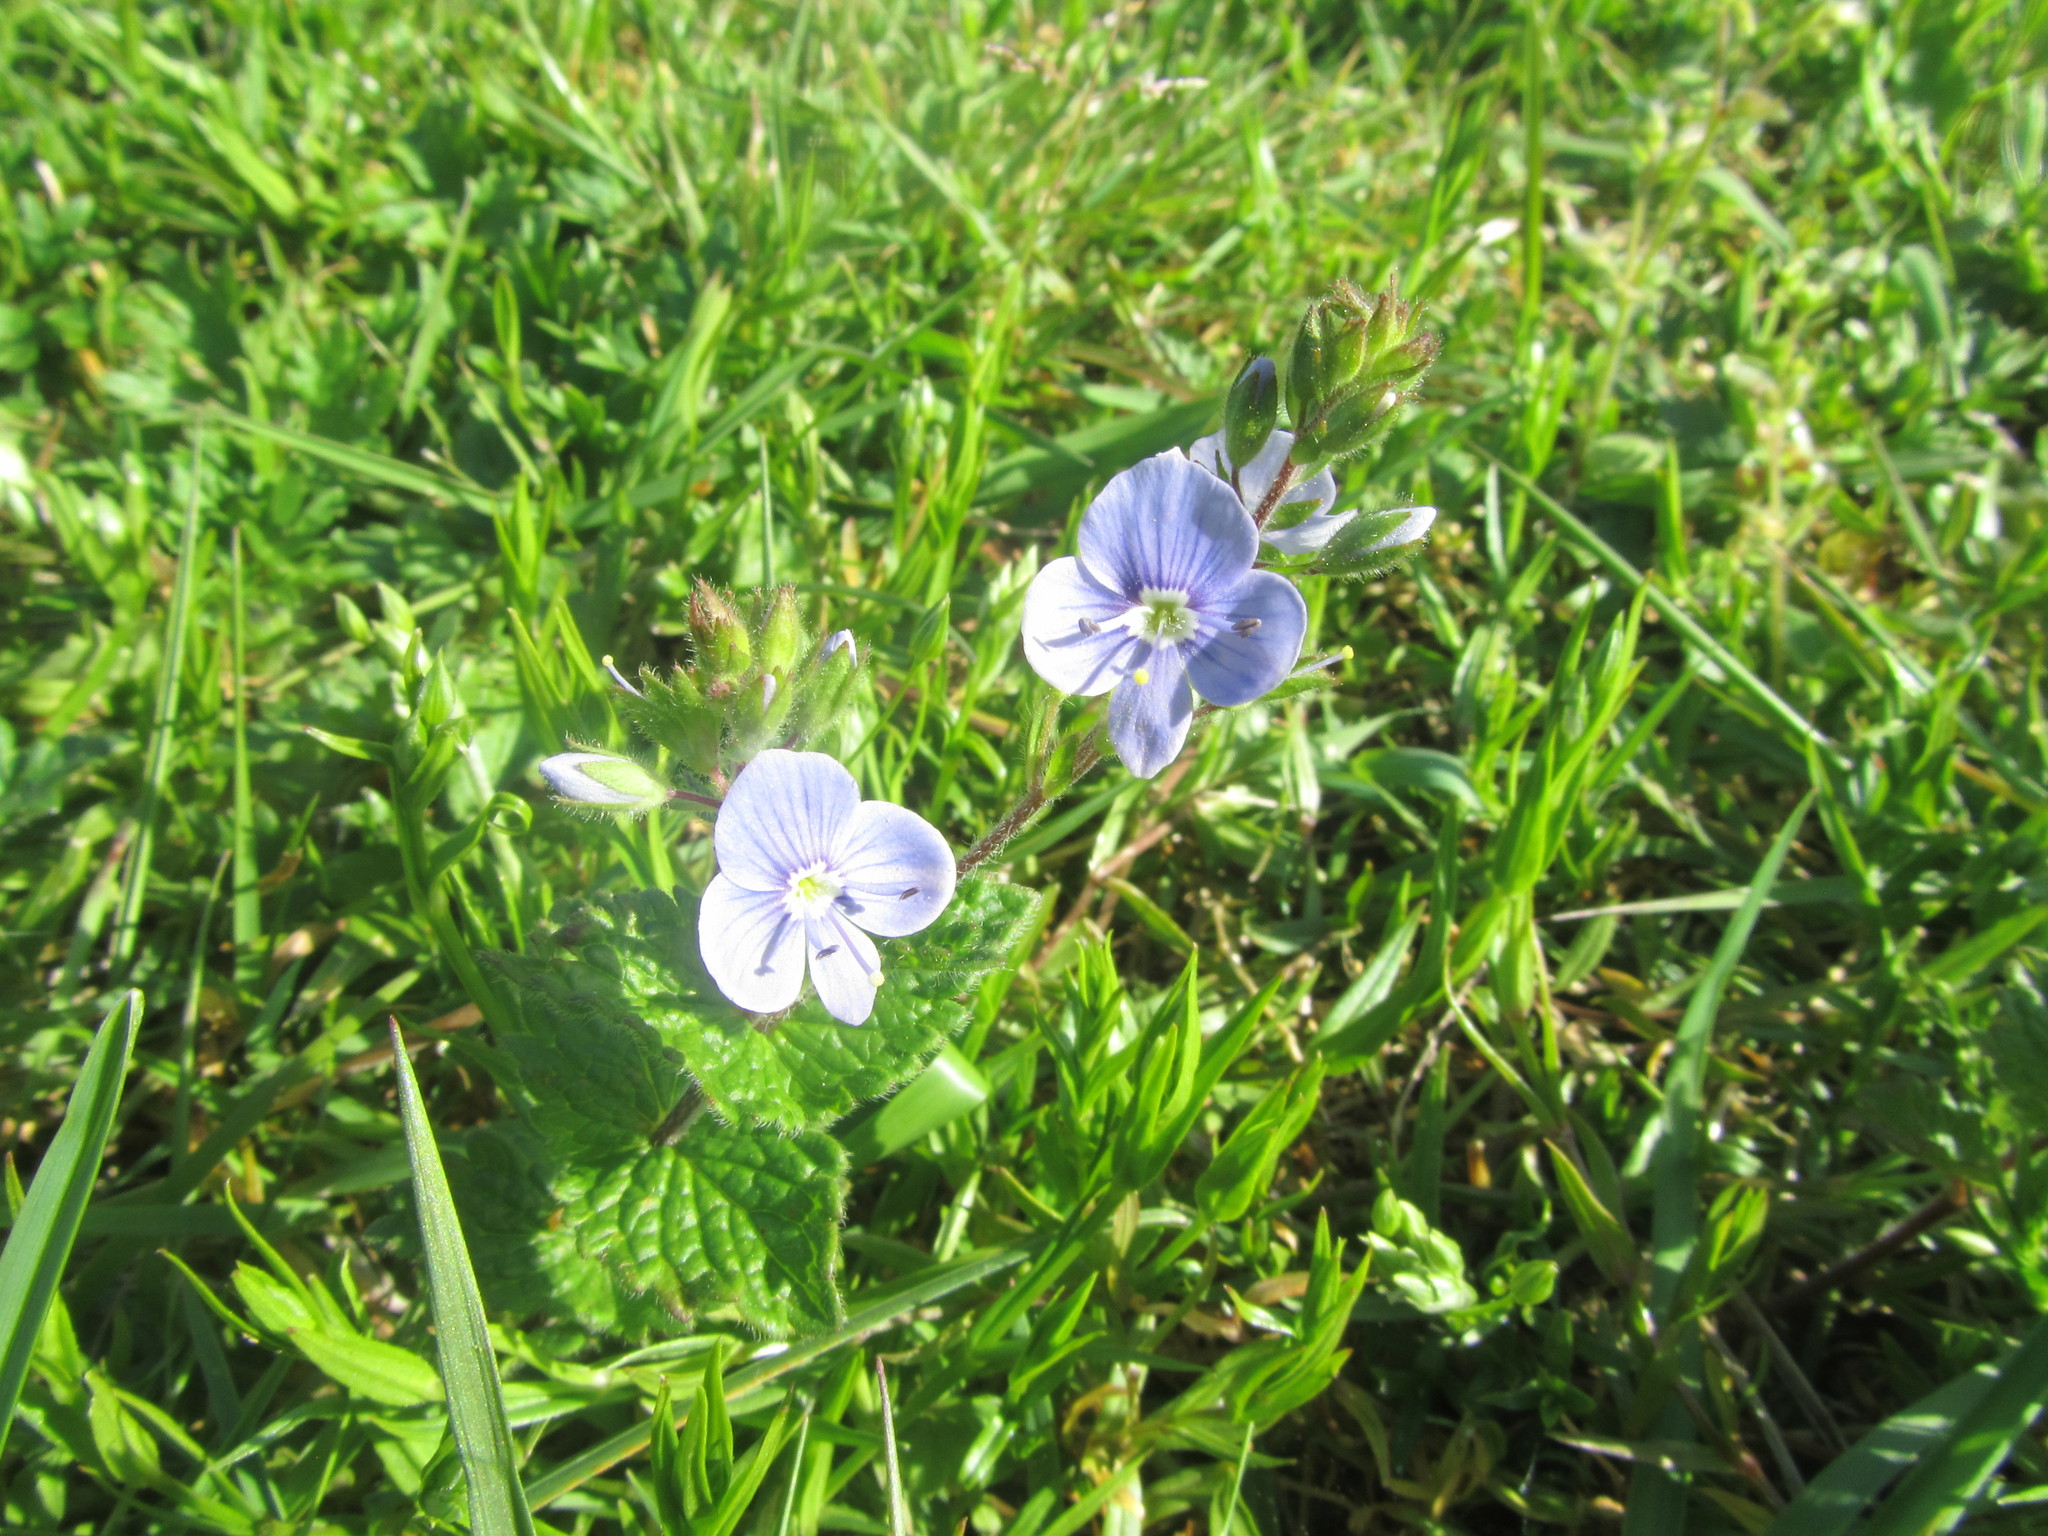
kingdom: Plantae
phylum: Tracheophyta
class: Magnoliopsida
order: Lamiales
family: Plantaginaceae
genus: Veronica
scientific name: Veronica chamaedrys
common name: Germander speedwell
